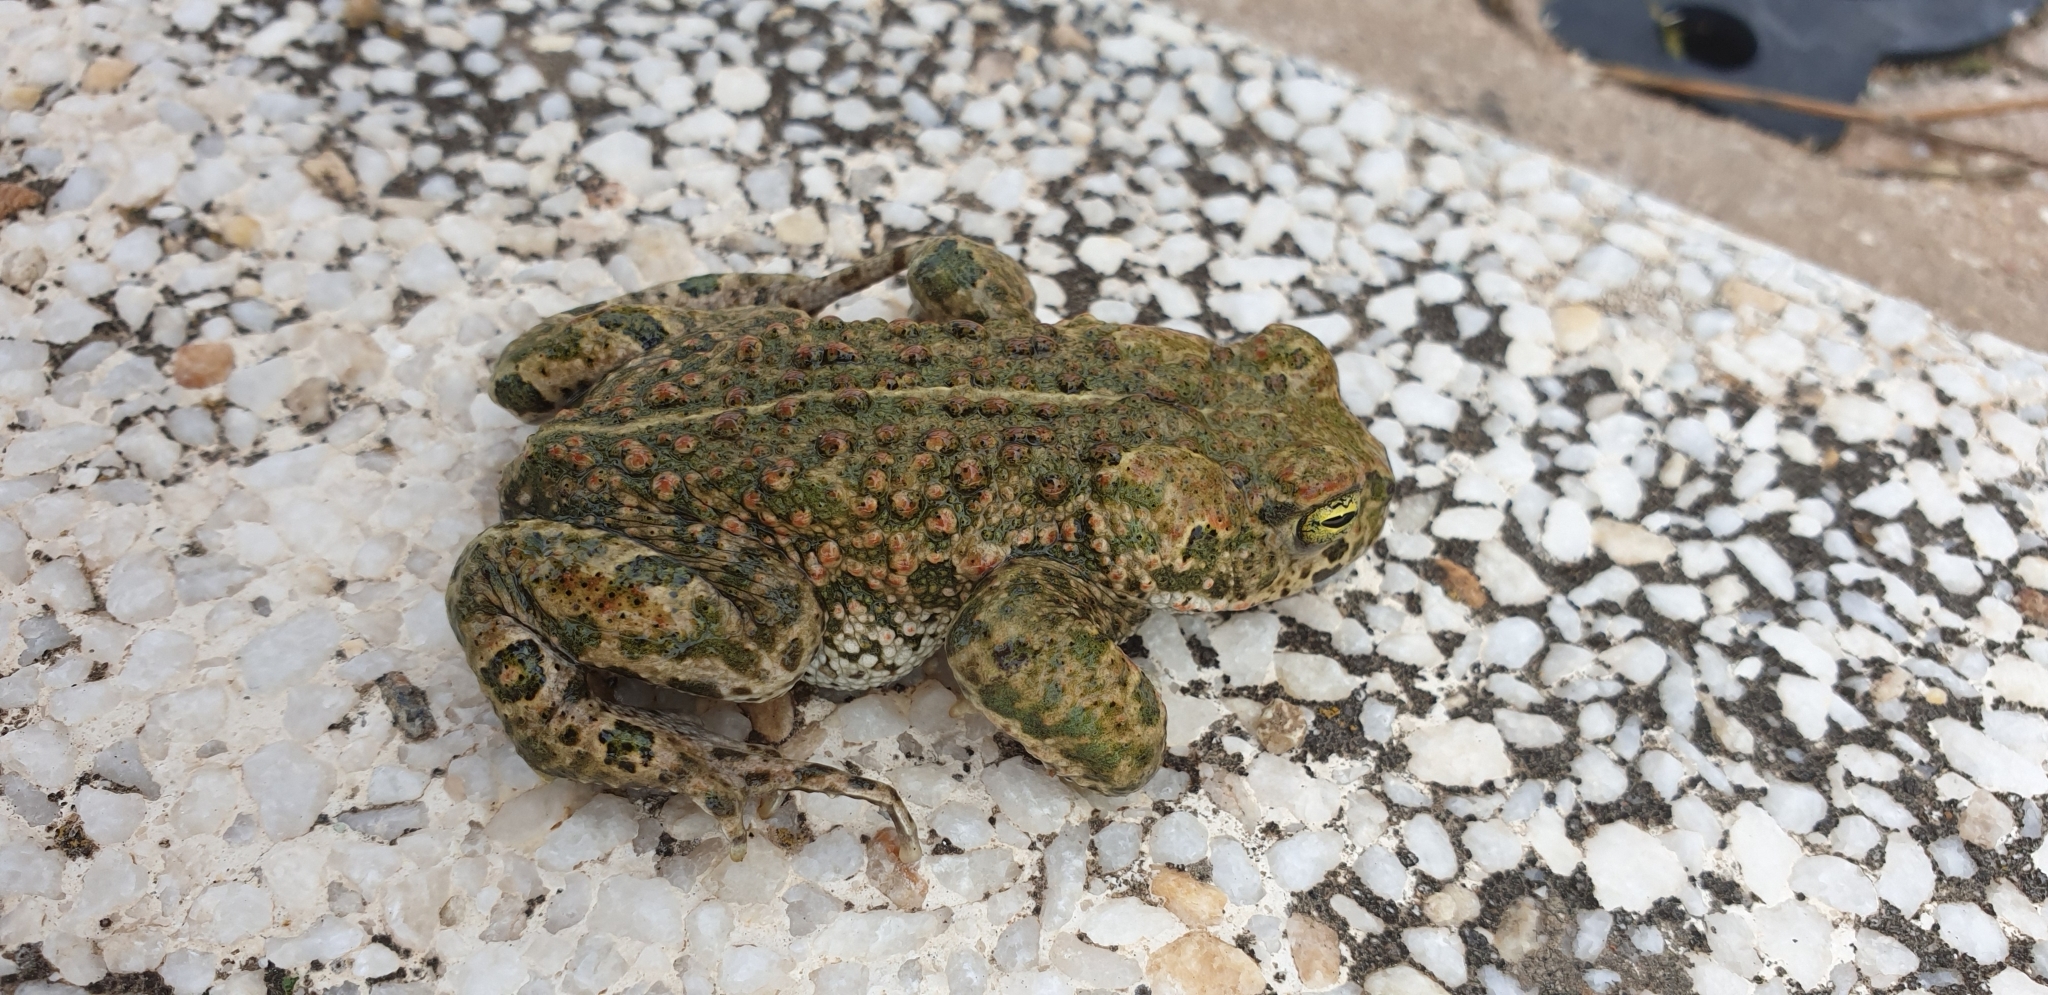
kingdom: Animalia
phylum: Chordata
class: Amphibia
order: Anura
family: Bufonidae
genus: Epidalea
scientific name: Epidalea calamita
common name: Natterjack toad
